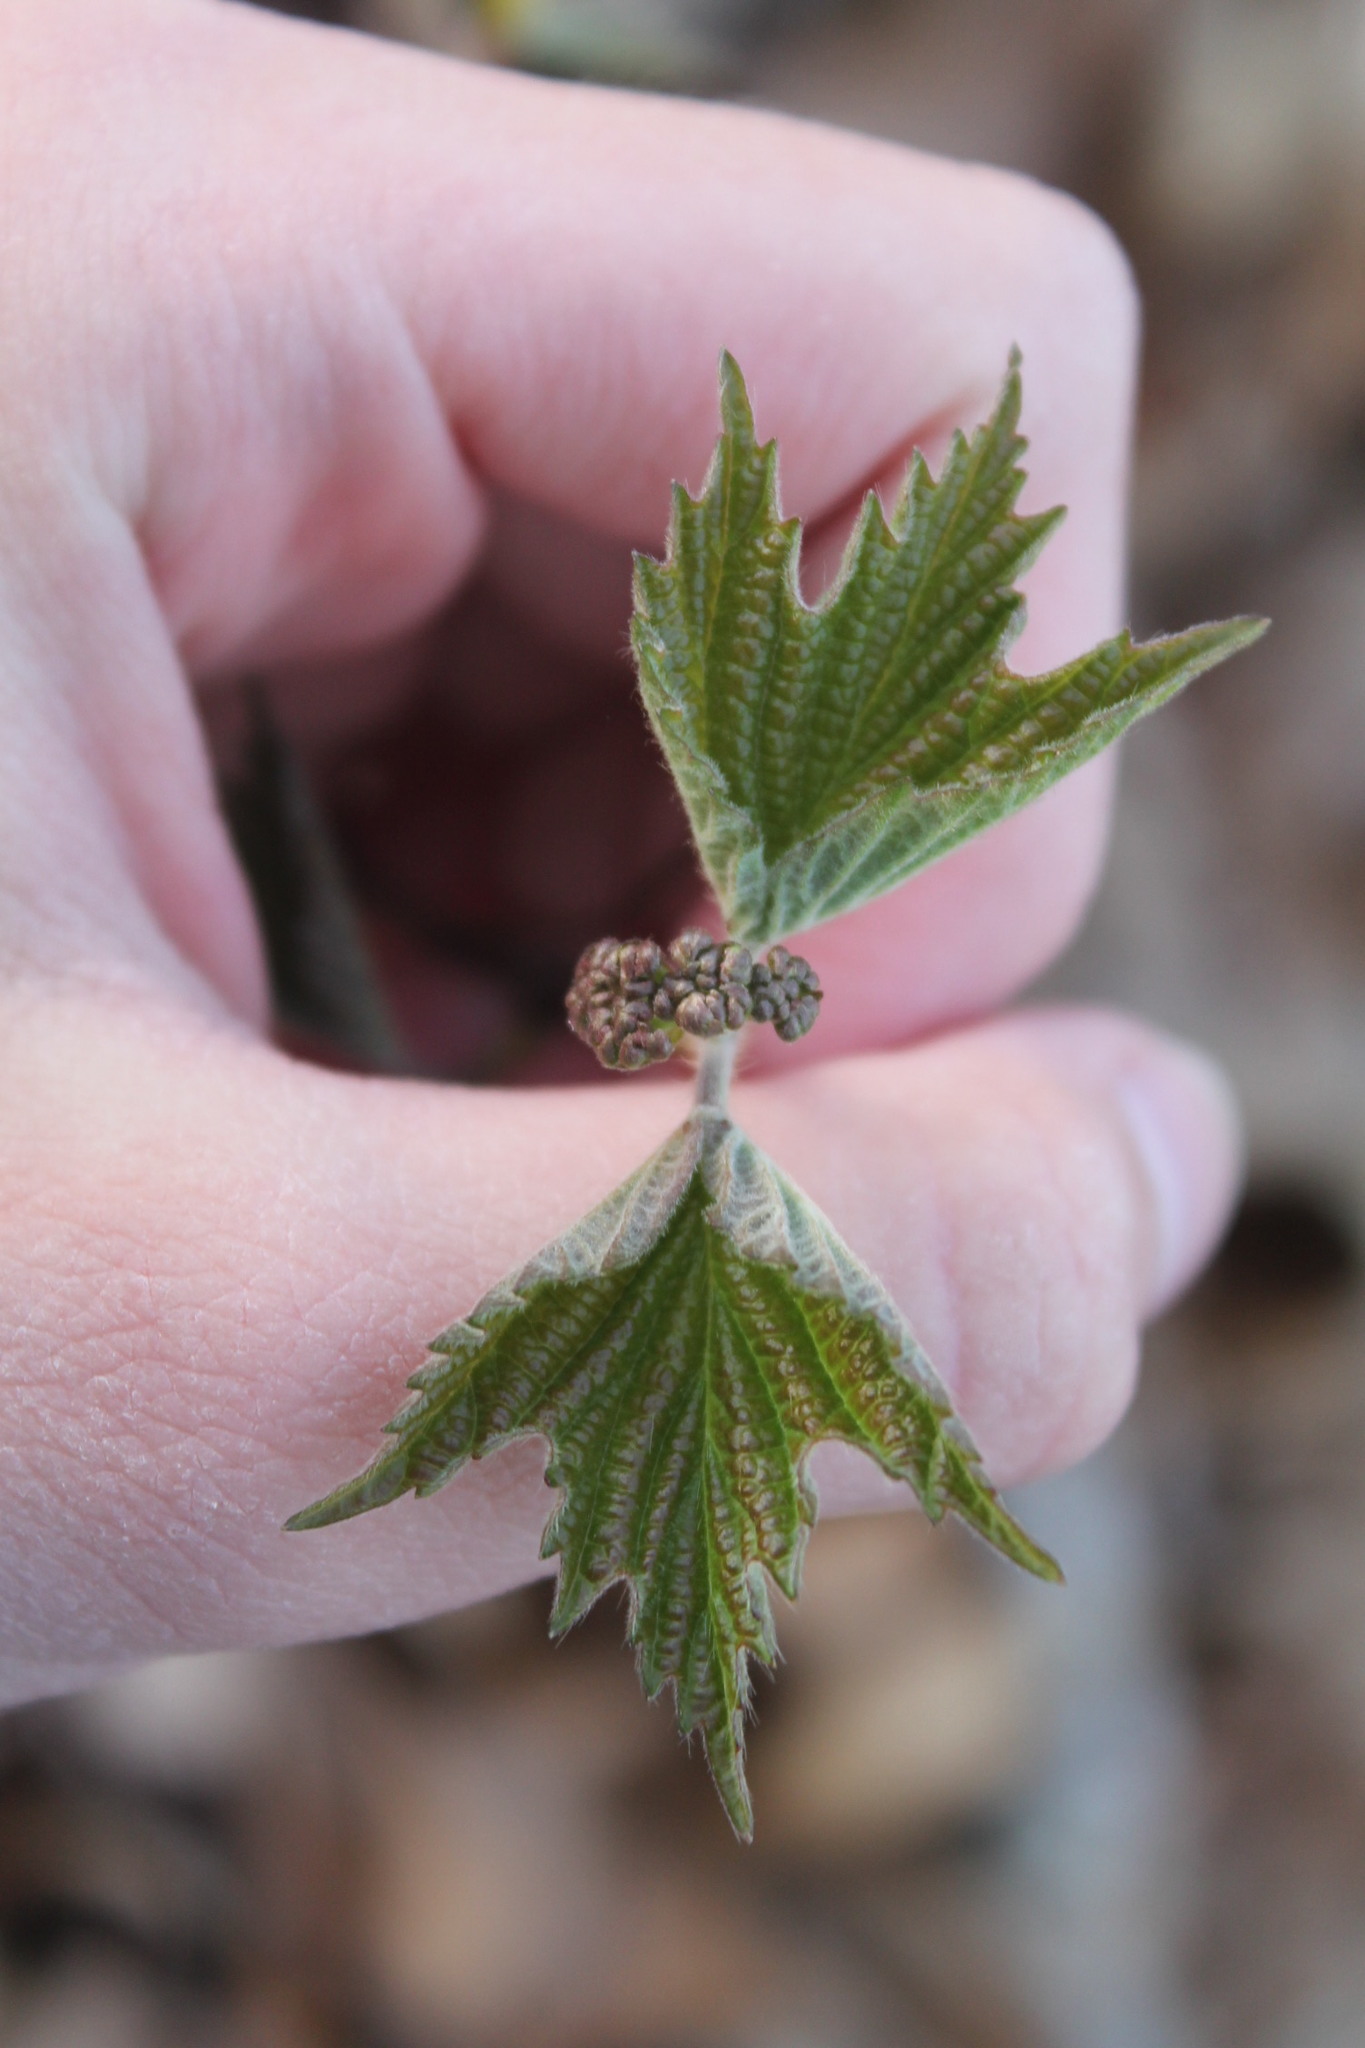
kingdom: Plantae
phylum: Tracheophyta
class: Magnoliopsida
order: Dipsacales
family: Viburnaceae
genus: Viburnum
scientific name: Viburnum acerifolium
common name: Dockmackie
